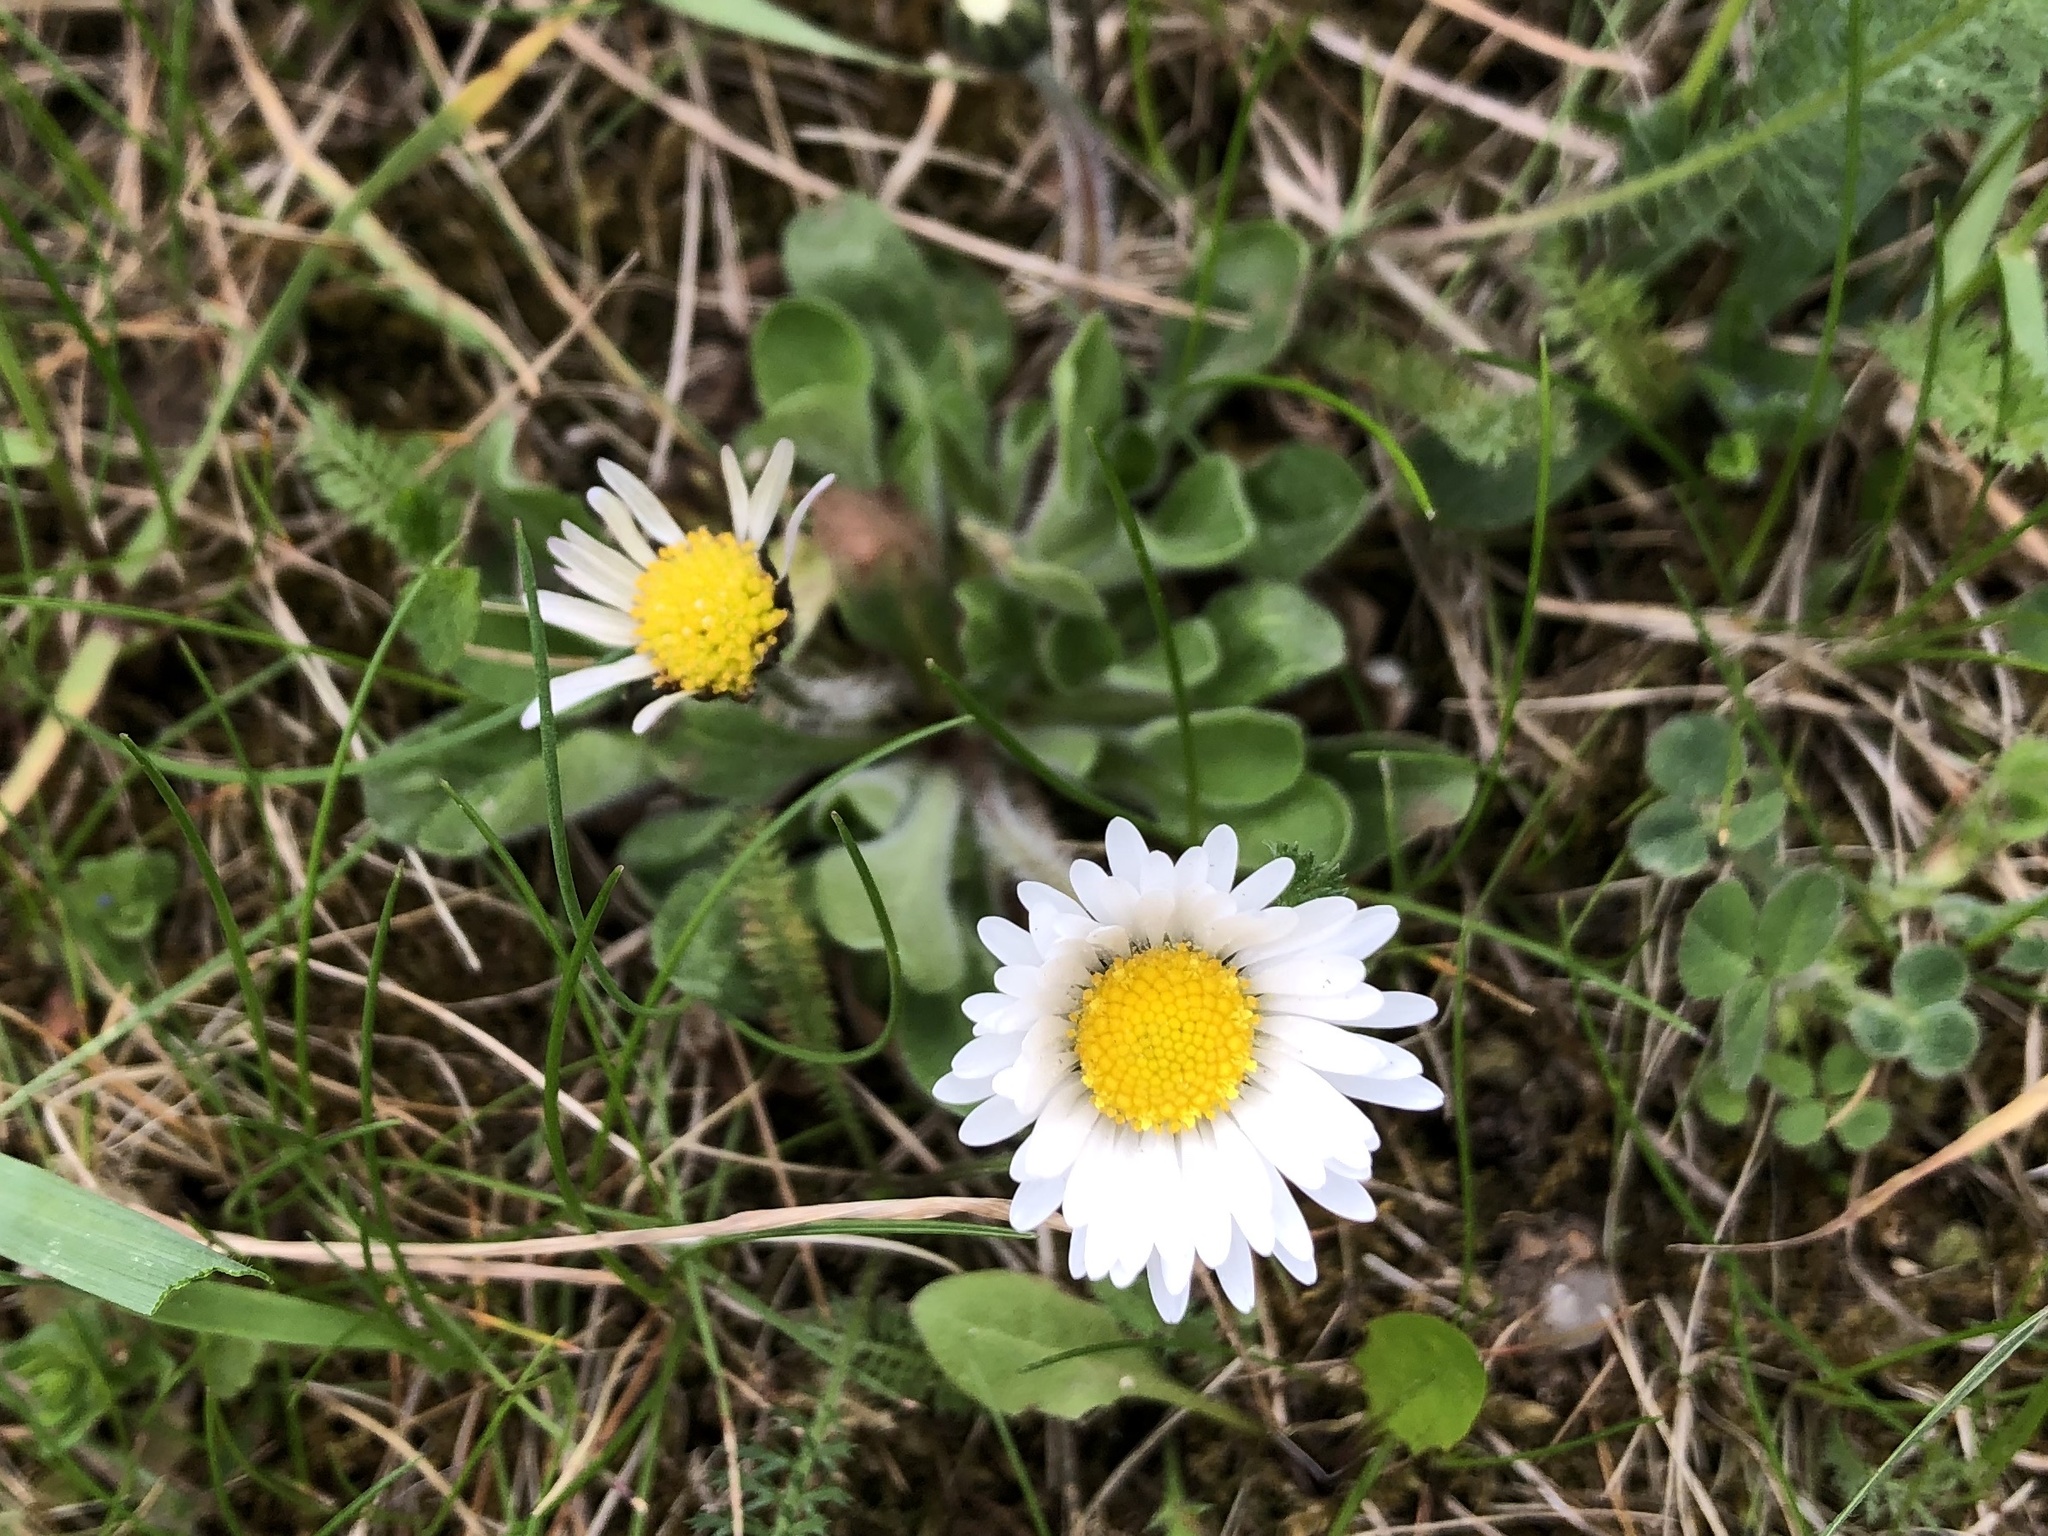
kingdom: Plantae
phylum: Tracheophyta
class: Magnoliopsida
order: Asterales
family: Asteraceae
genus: Bellis
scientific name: Bellis perennis
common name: Lawndaisy
